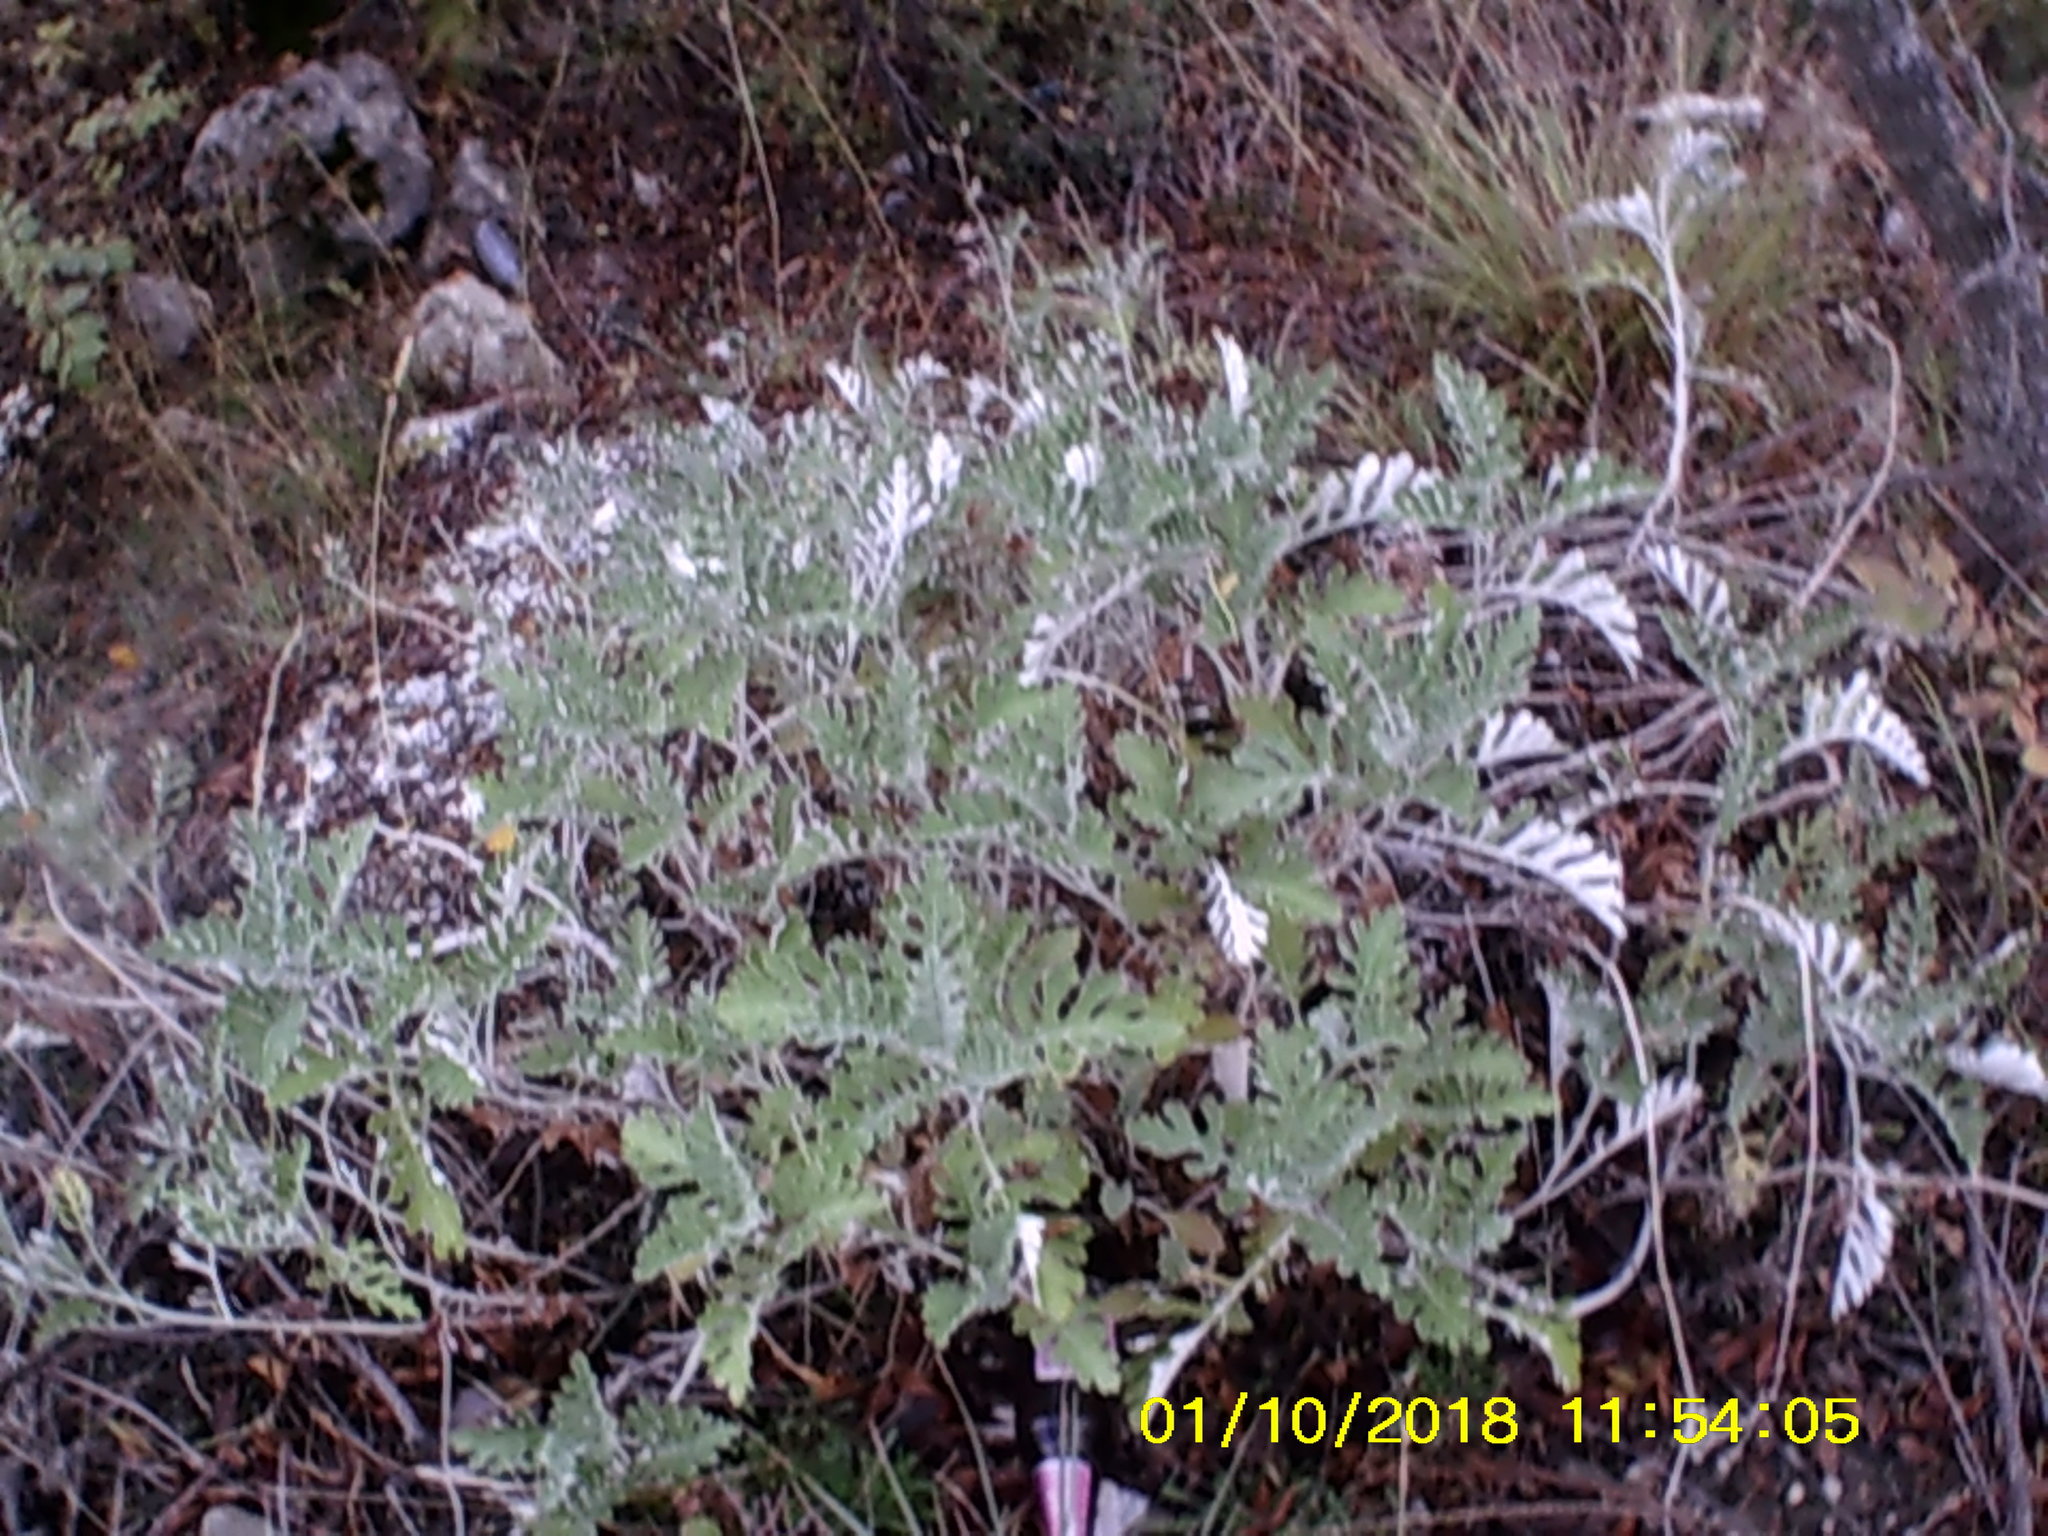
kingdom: Plantae
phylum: Tracheophyta
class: Magnoliopsida
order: Asterales
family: Asteraceae
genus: Jacobaea
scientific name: Jacobaea maritima
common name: Silver ragwort
